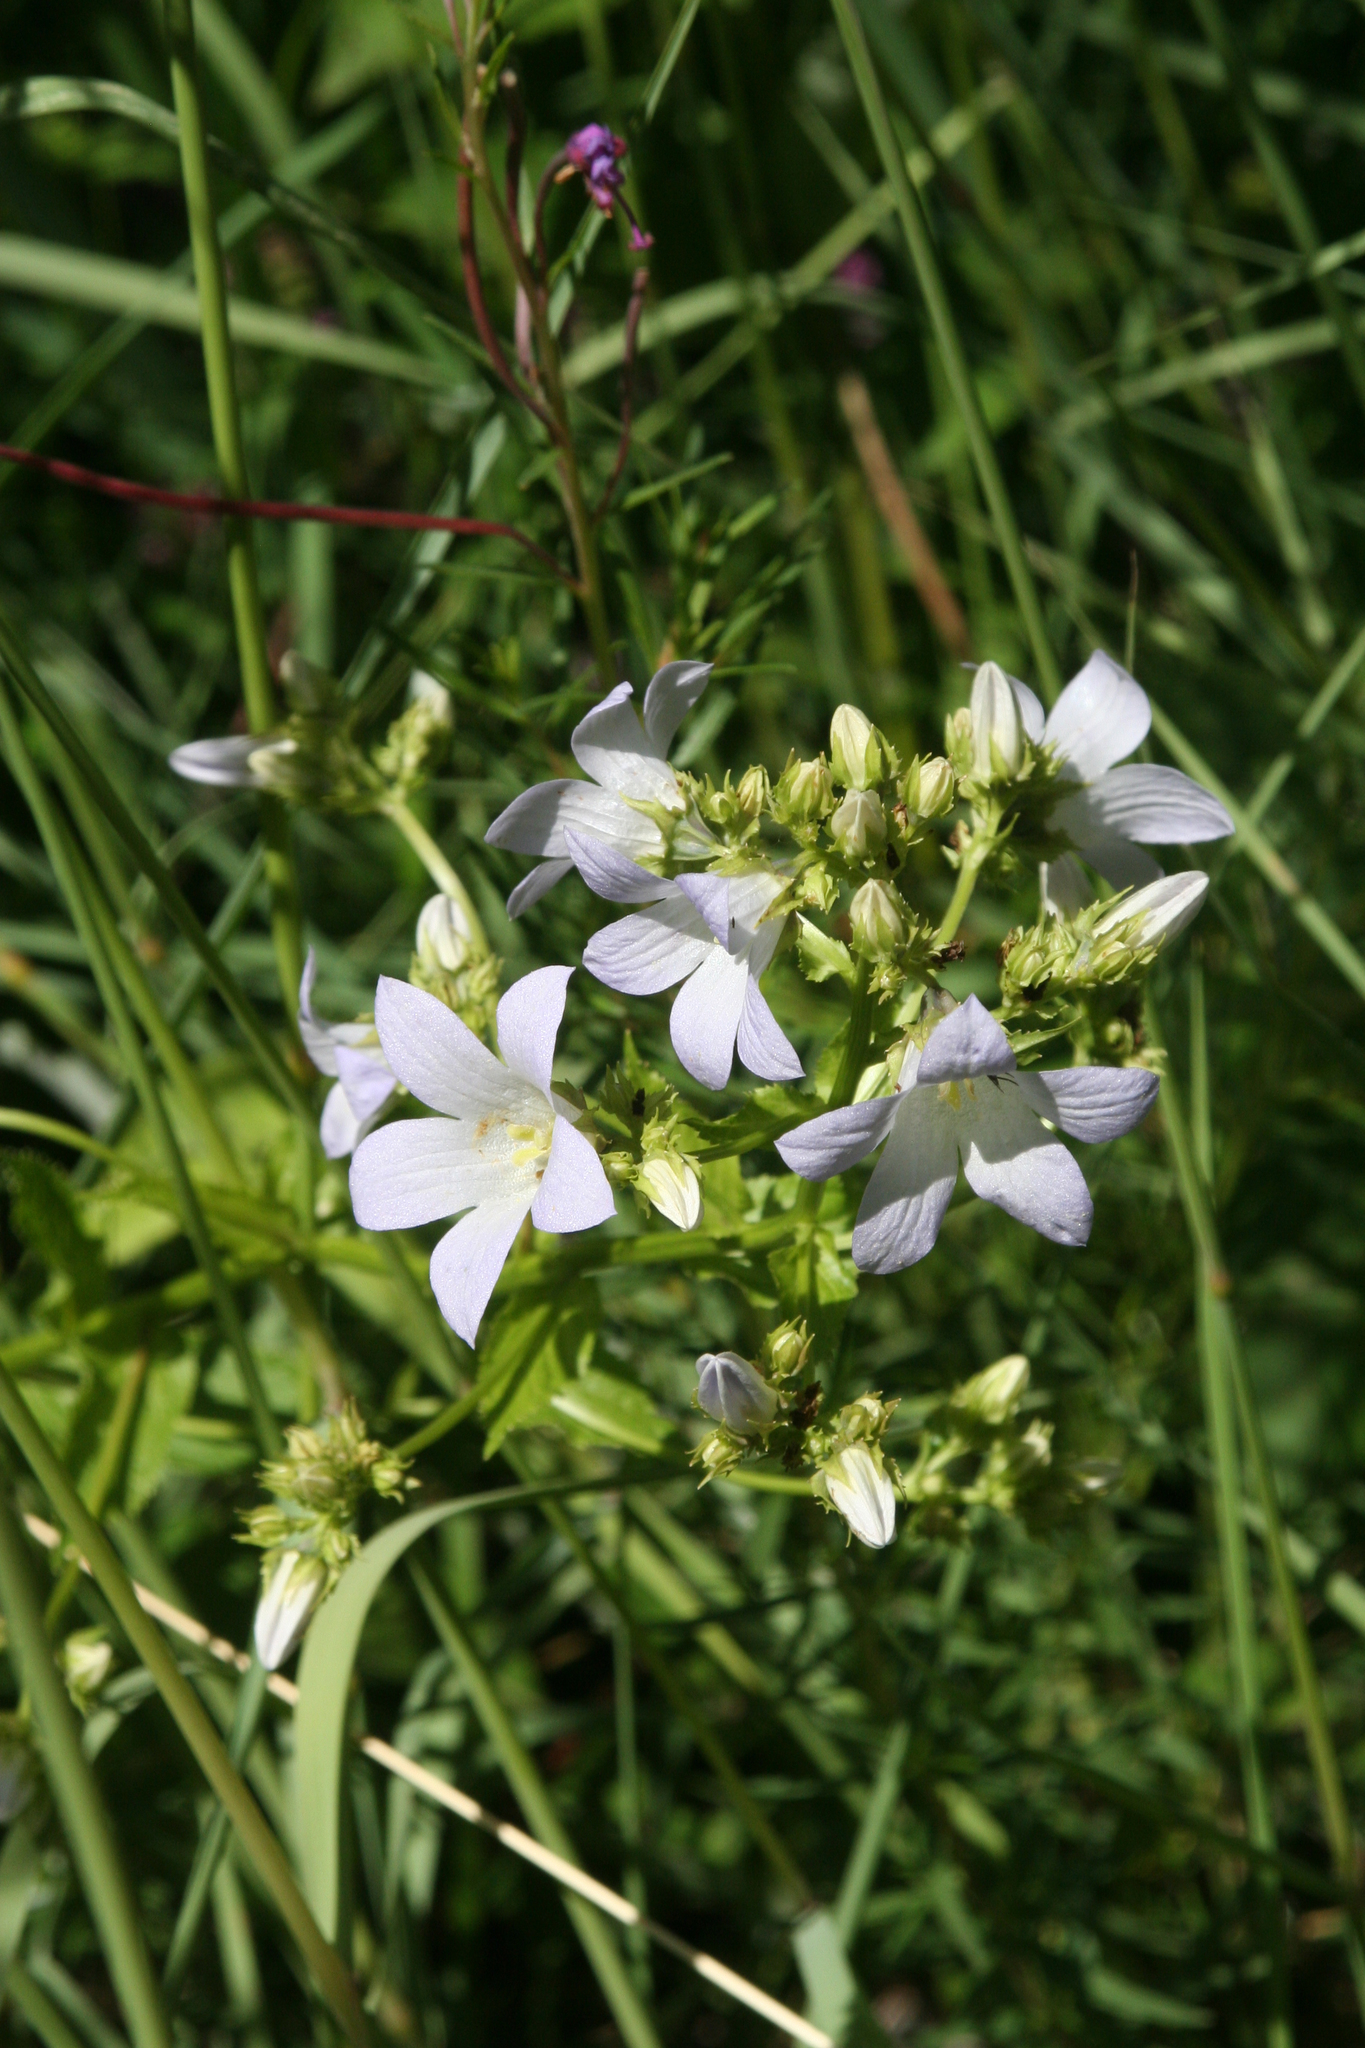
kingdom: Plantae
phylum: Tracheophyta
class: Magnoliopsida
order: Asterales
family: Campanulaceae
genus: Campanula
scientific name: Campanula lactiflora
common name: Milky bellflower
